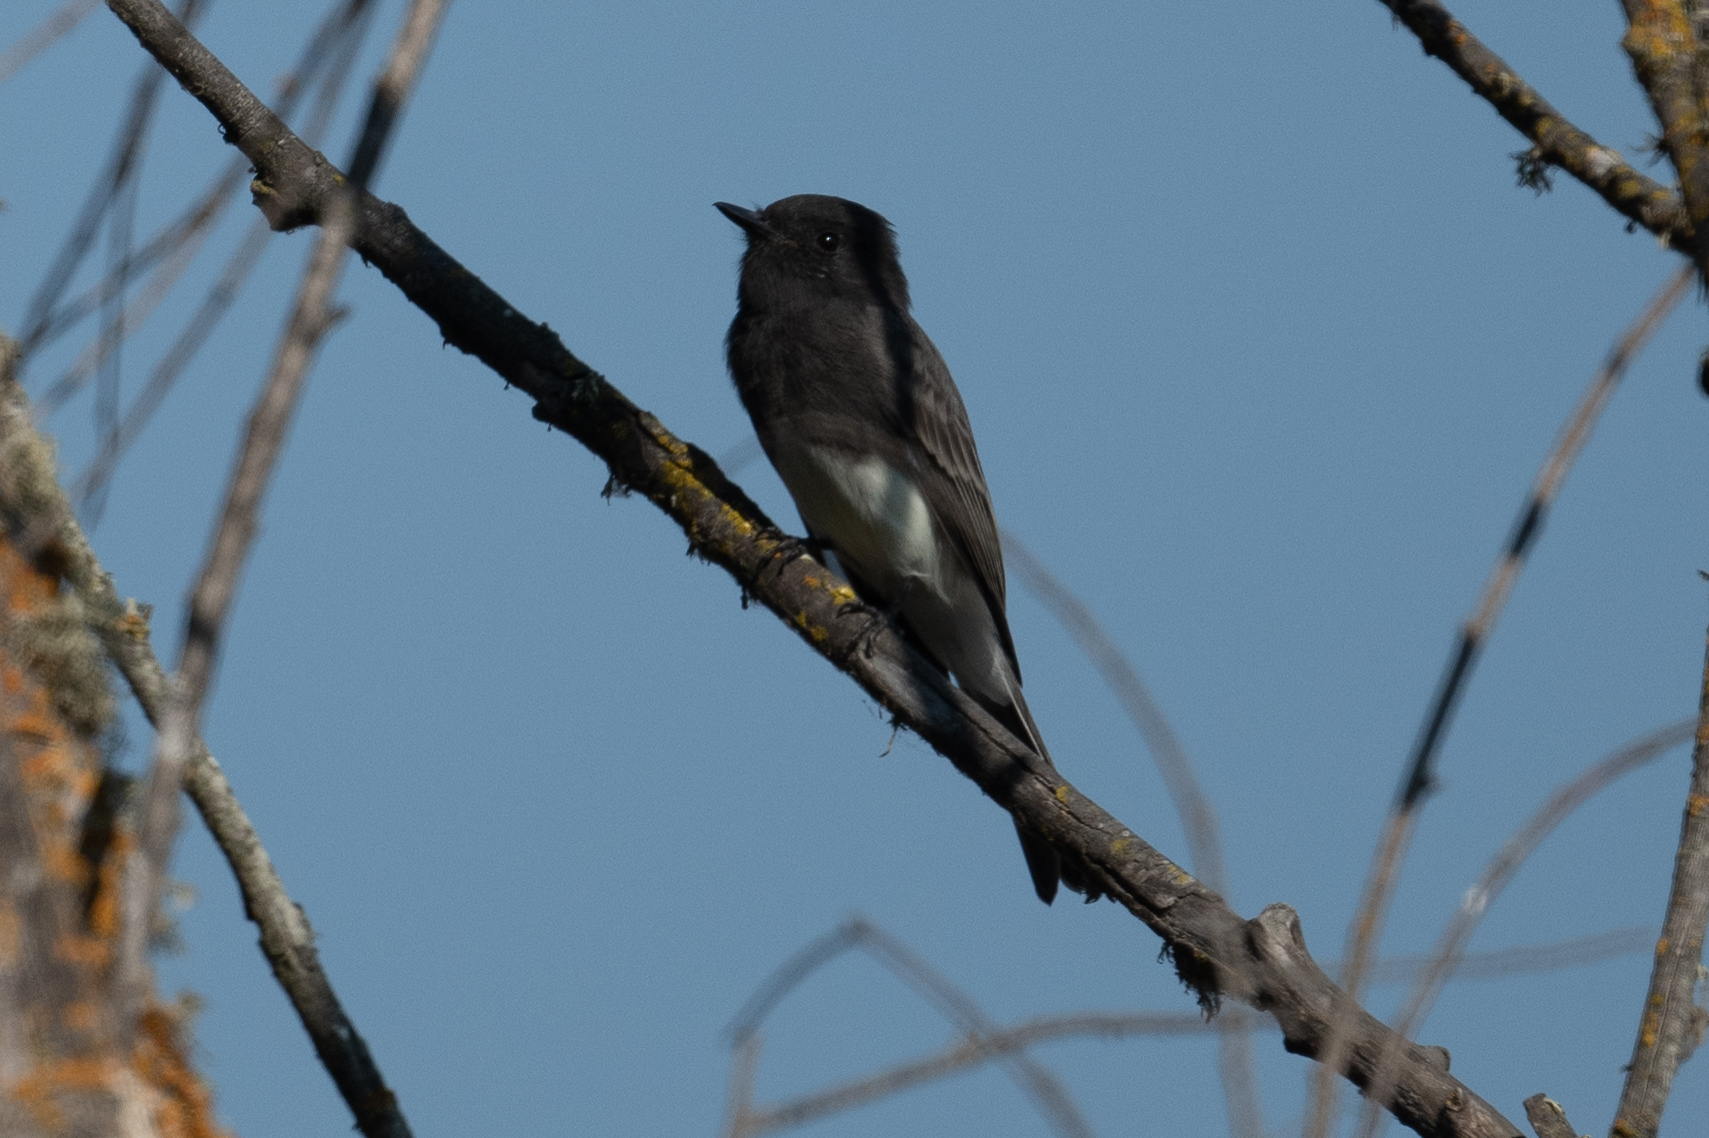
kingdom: Animalia
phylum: Chordata
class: Aves
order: Passeriformes
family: Tyrannidae
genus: Sayornis
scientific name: Sayornis nigricans
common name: Black phoebe
